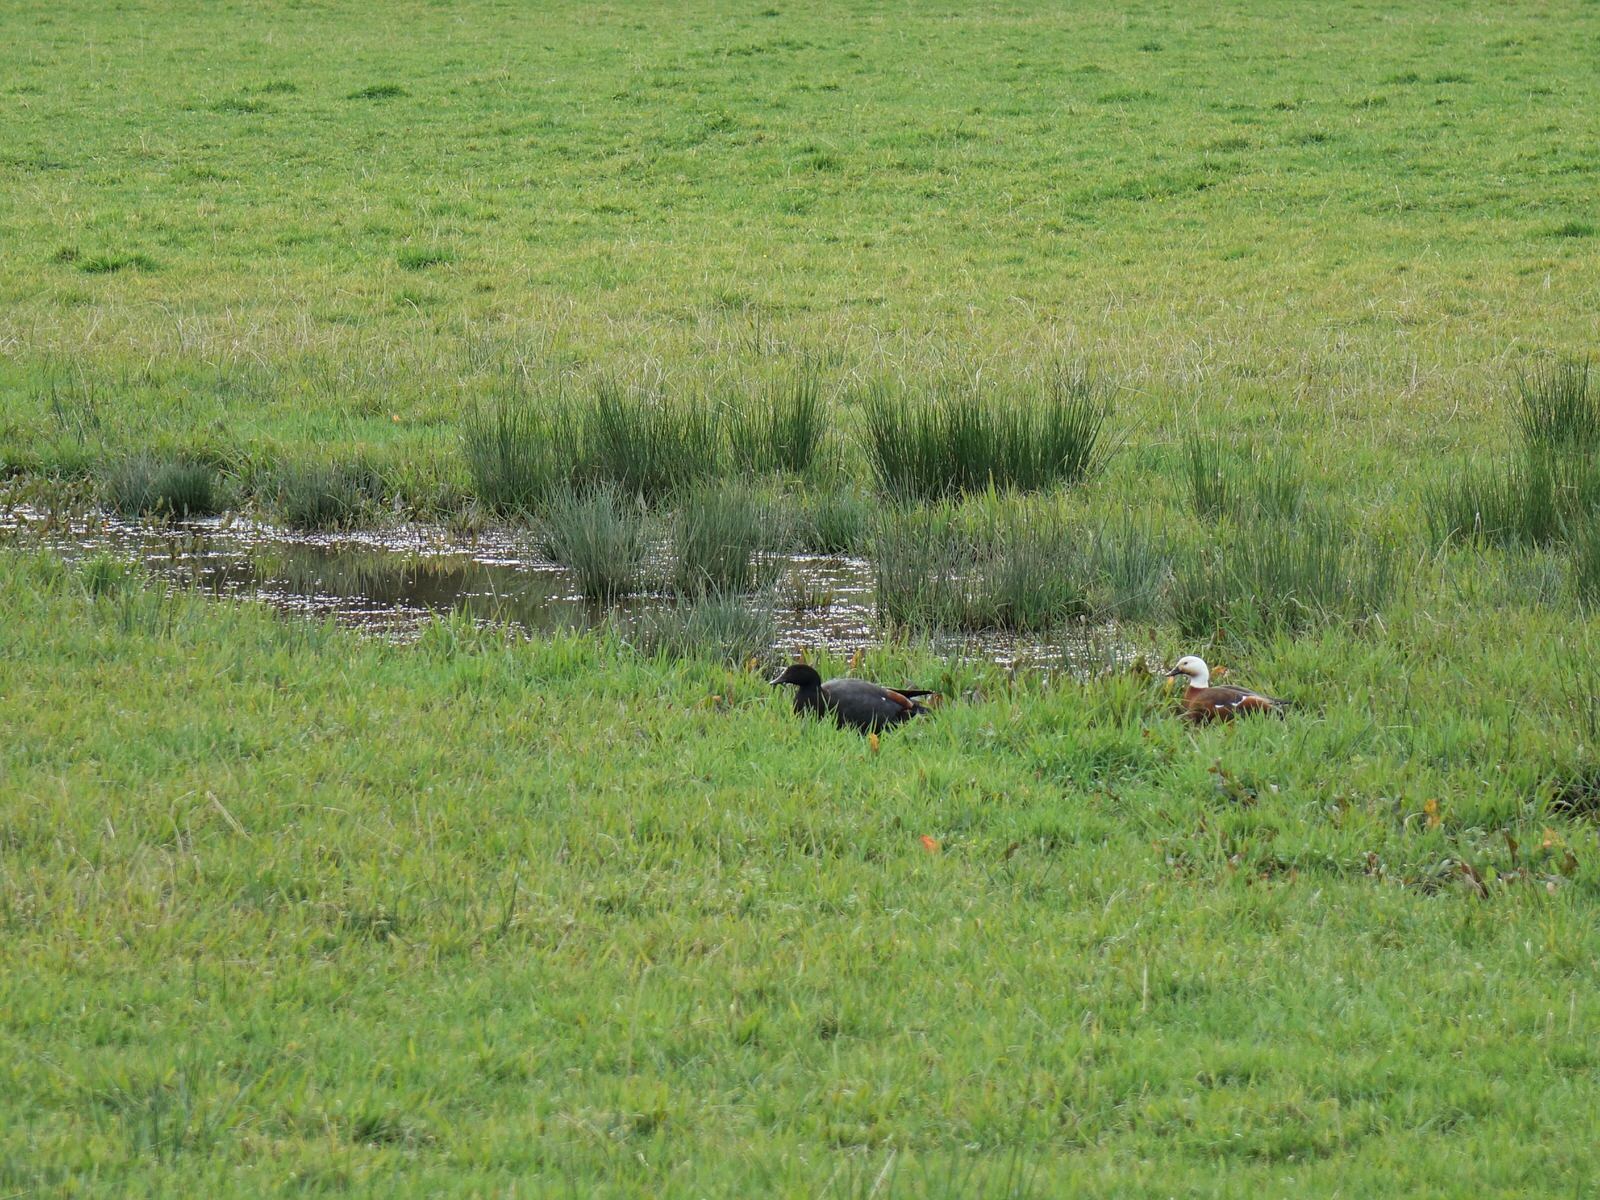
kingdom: Animalia
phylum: Chordata
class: Aves
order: Anseriformes
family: Anatidae
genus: Tadorna
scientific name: Tadorna variegata
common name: Paradise shelduck
